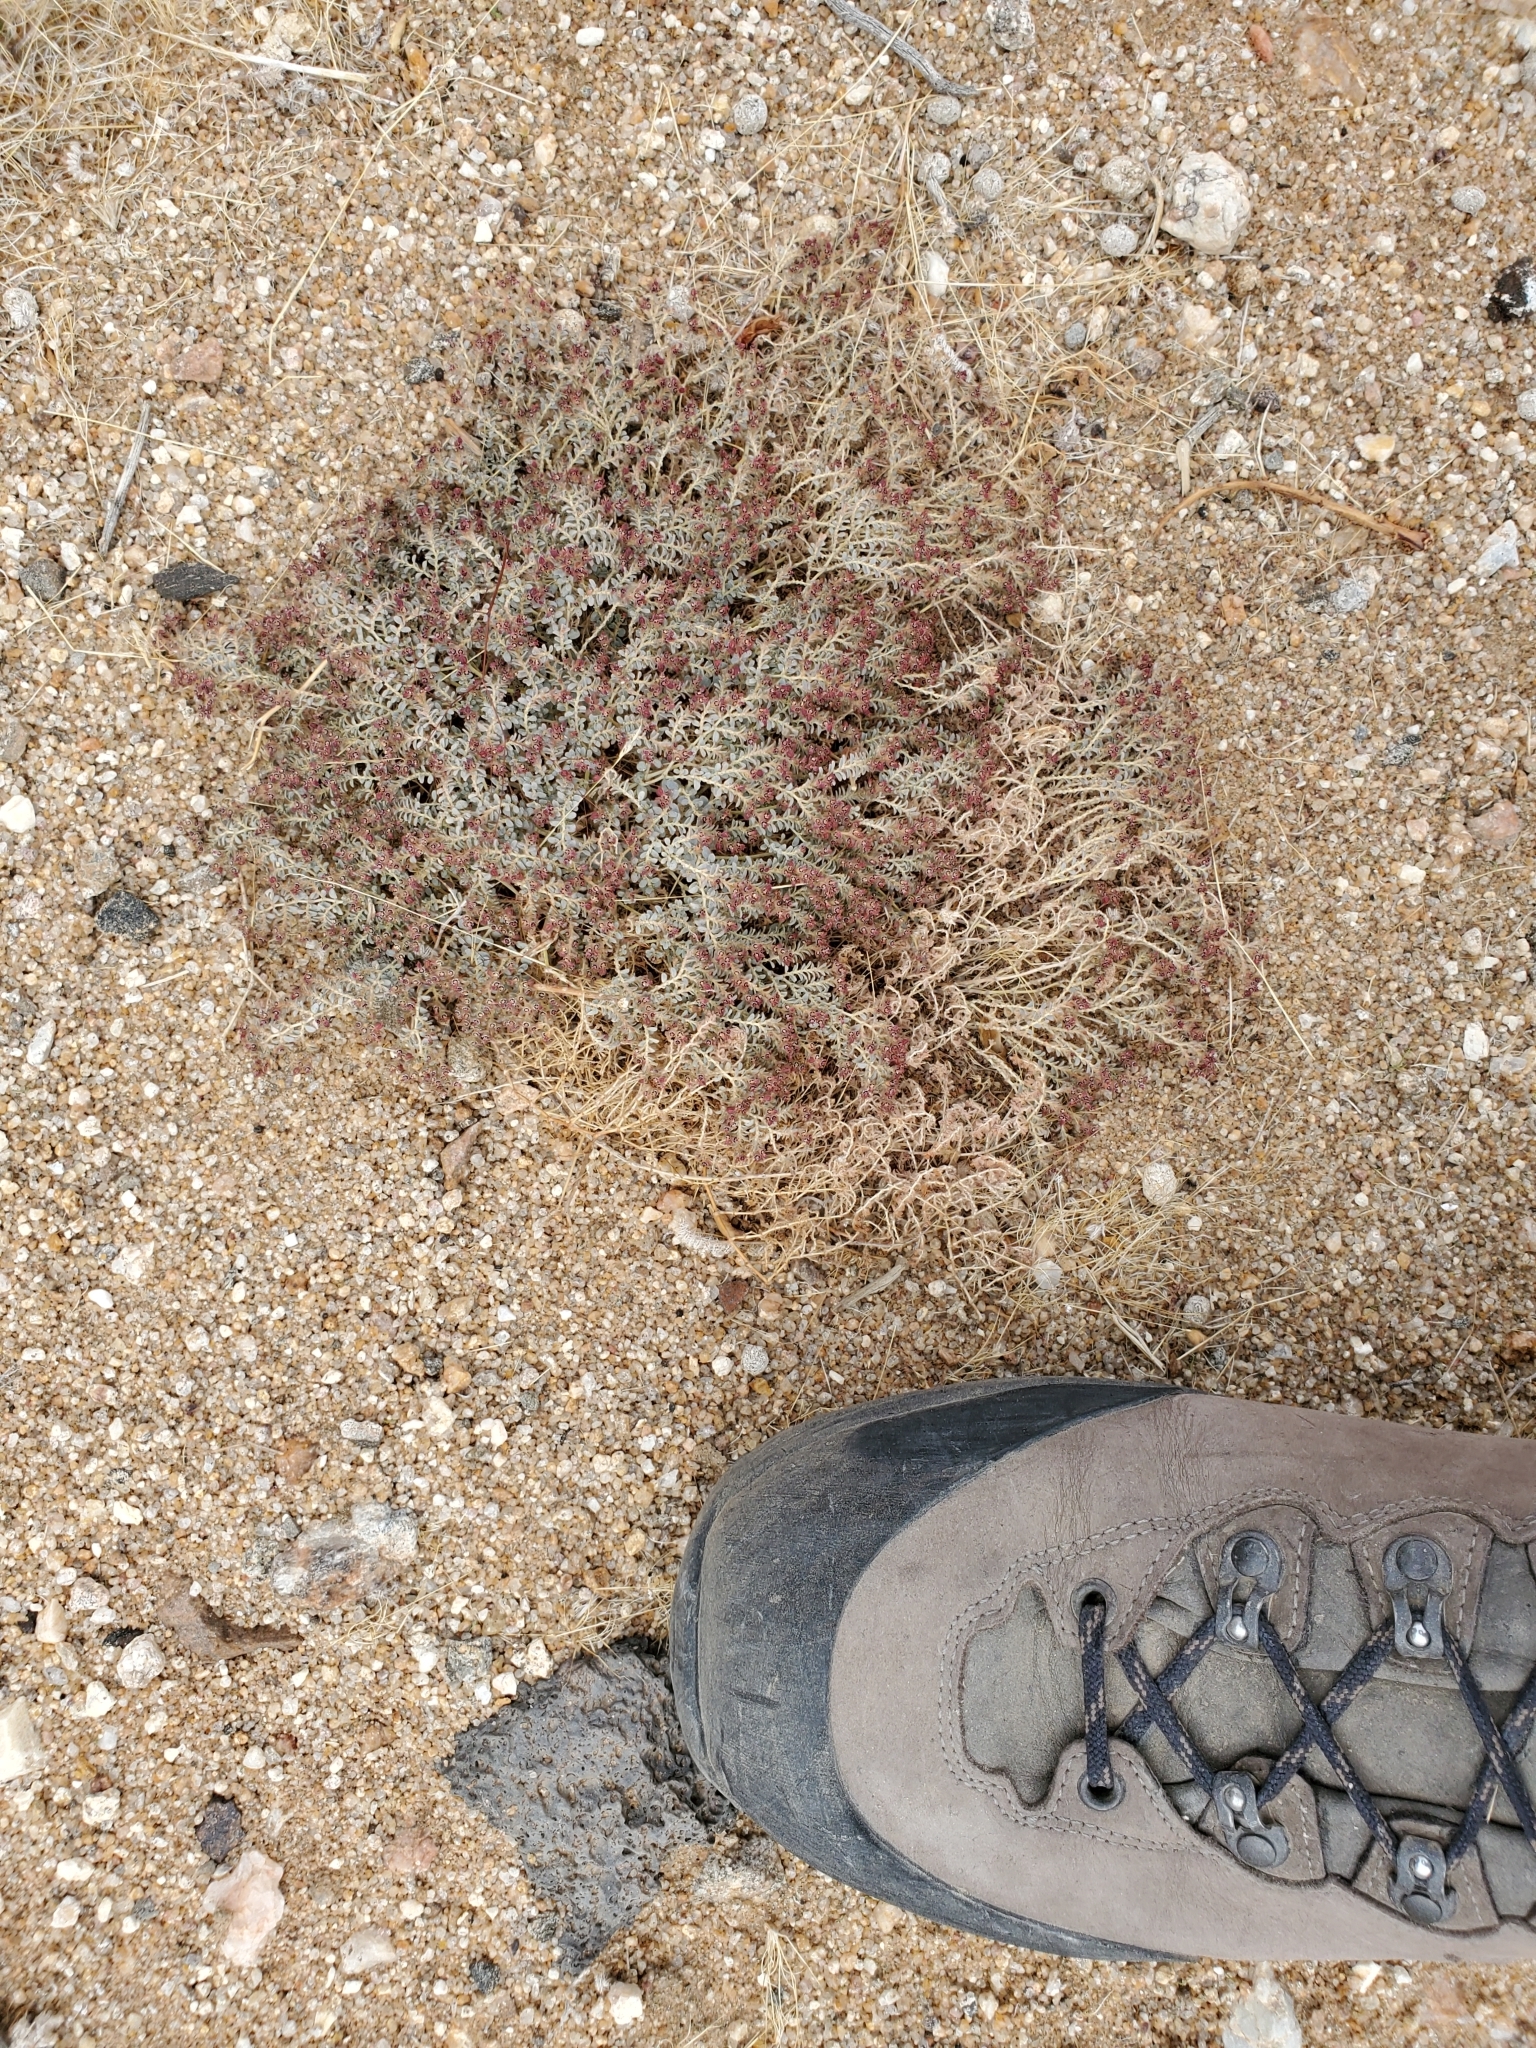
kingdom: Plantae
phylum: Tracheophyta
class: Magnoliopsida
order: Malpighiales
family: Euphorbiaceae
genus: Euphorbia
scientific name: Euphorbia polycarpa
